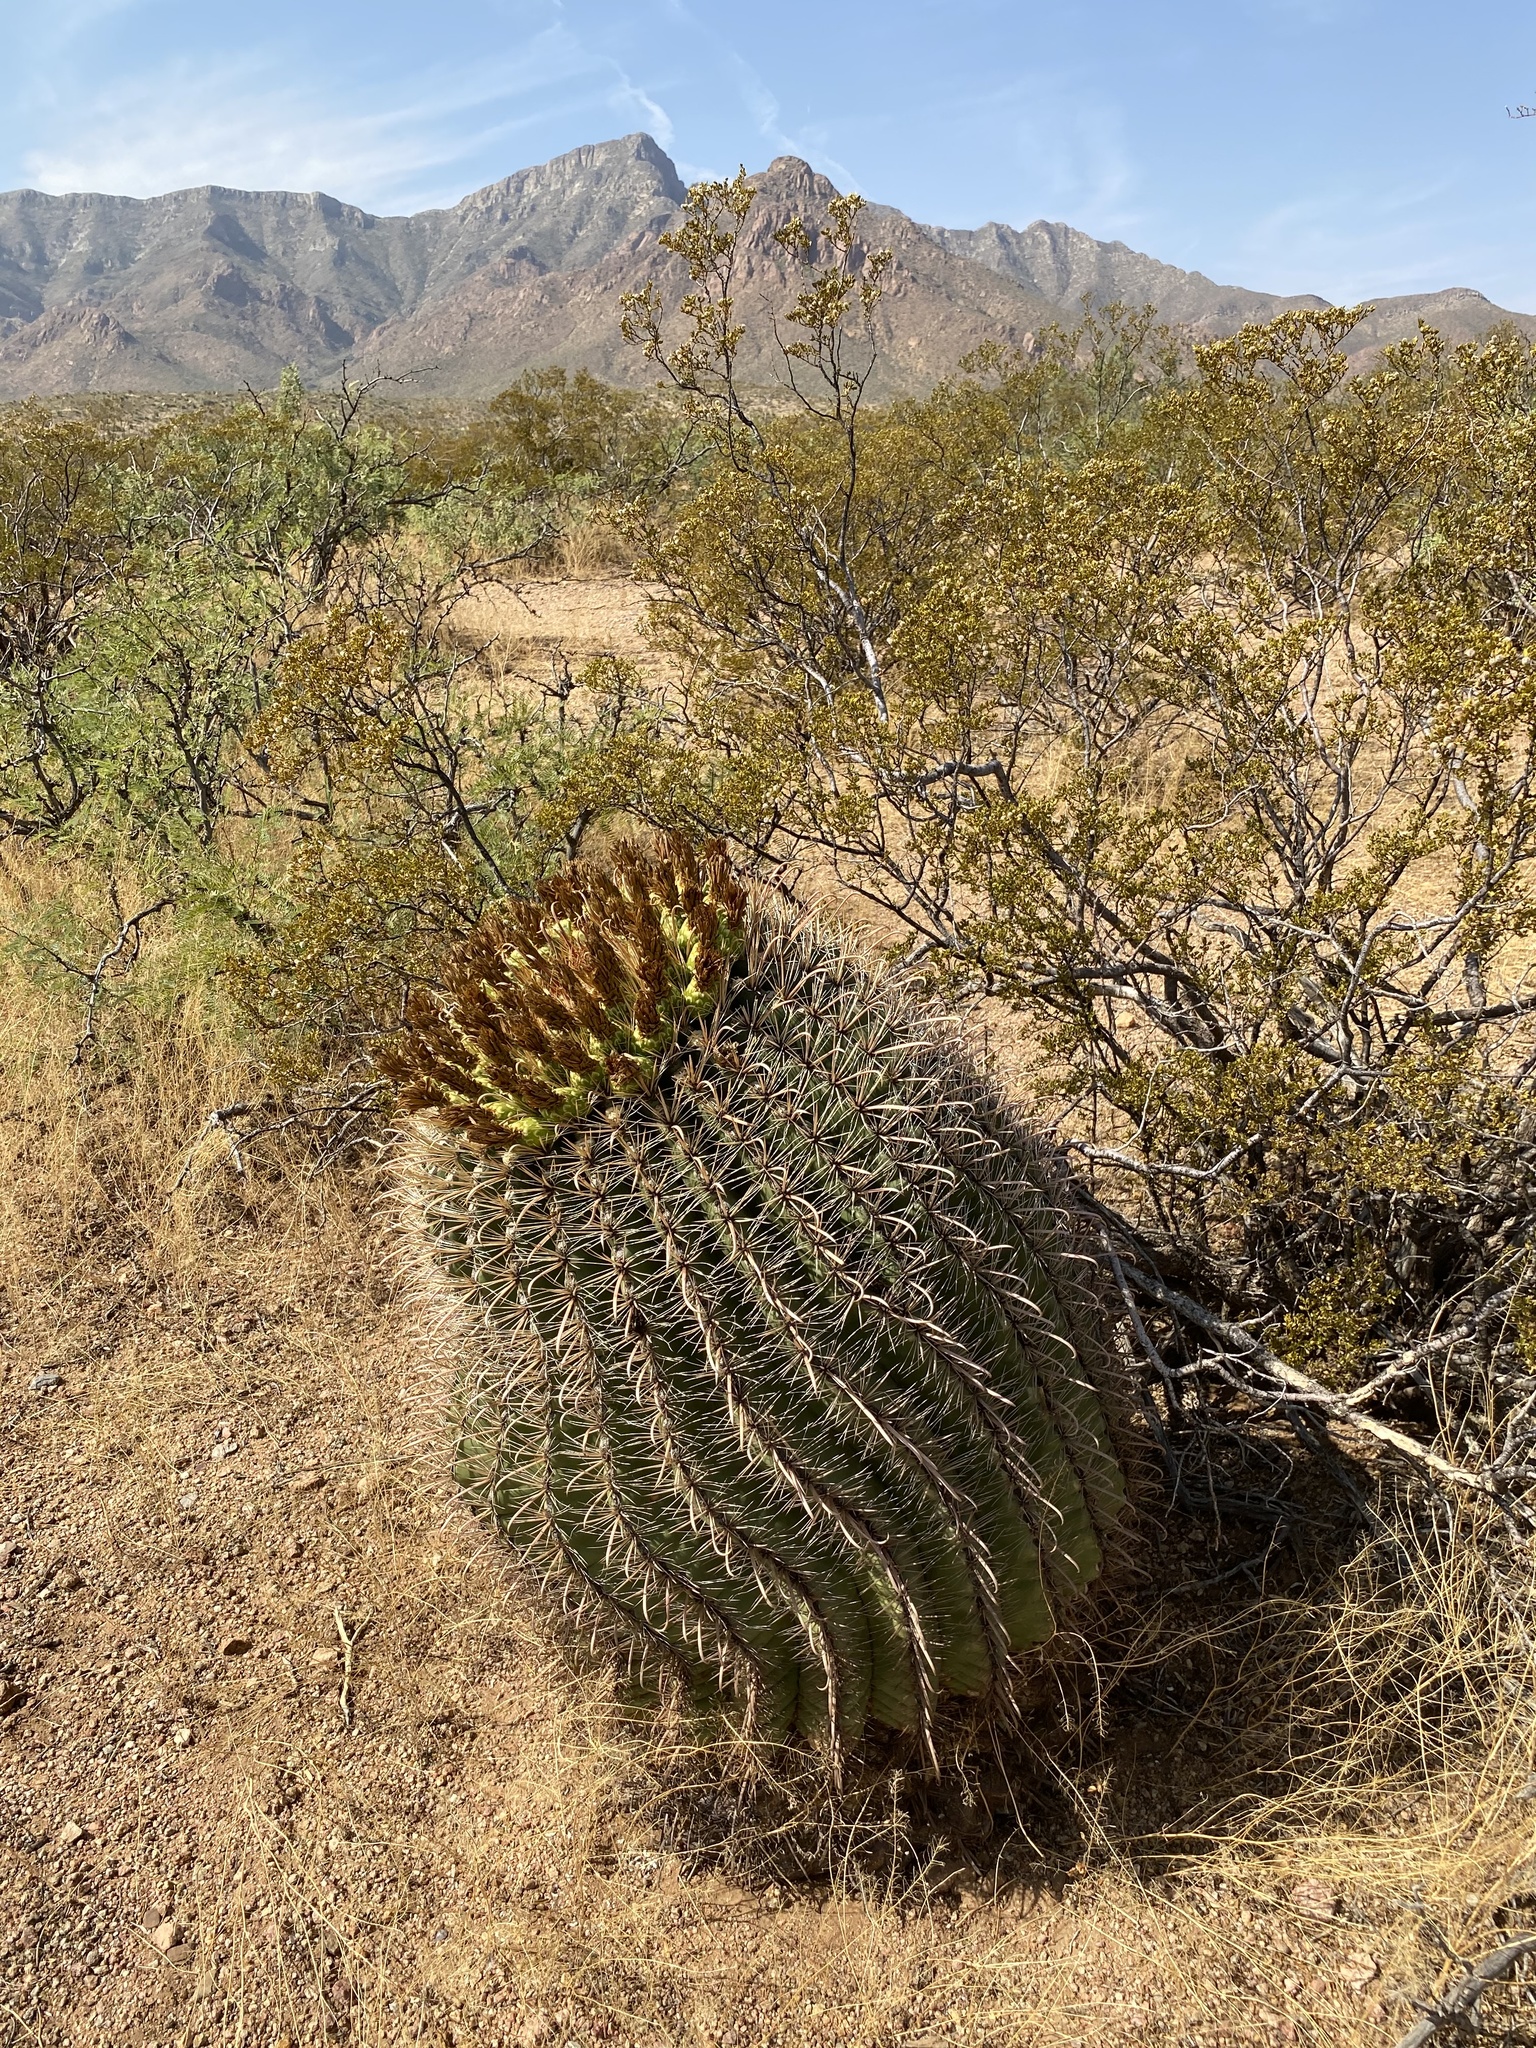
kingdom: Plantae
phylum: Tracheophyta
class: Magnoliopsida
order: Caryophyllales
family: Cactaceae
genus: Ferocactus
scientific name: Ferocactus wislizeni
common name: Candy barrel cactus
